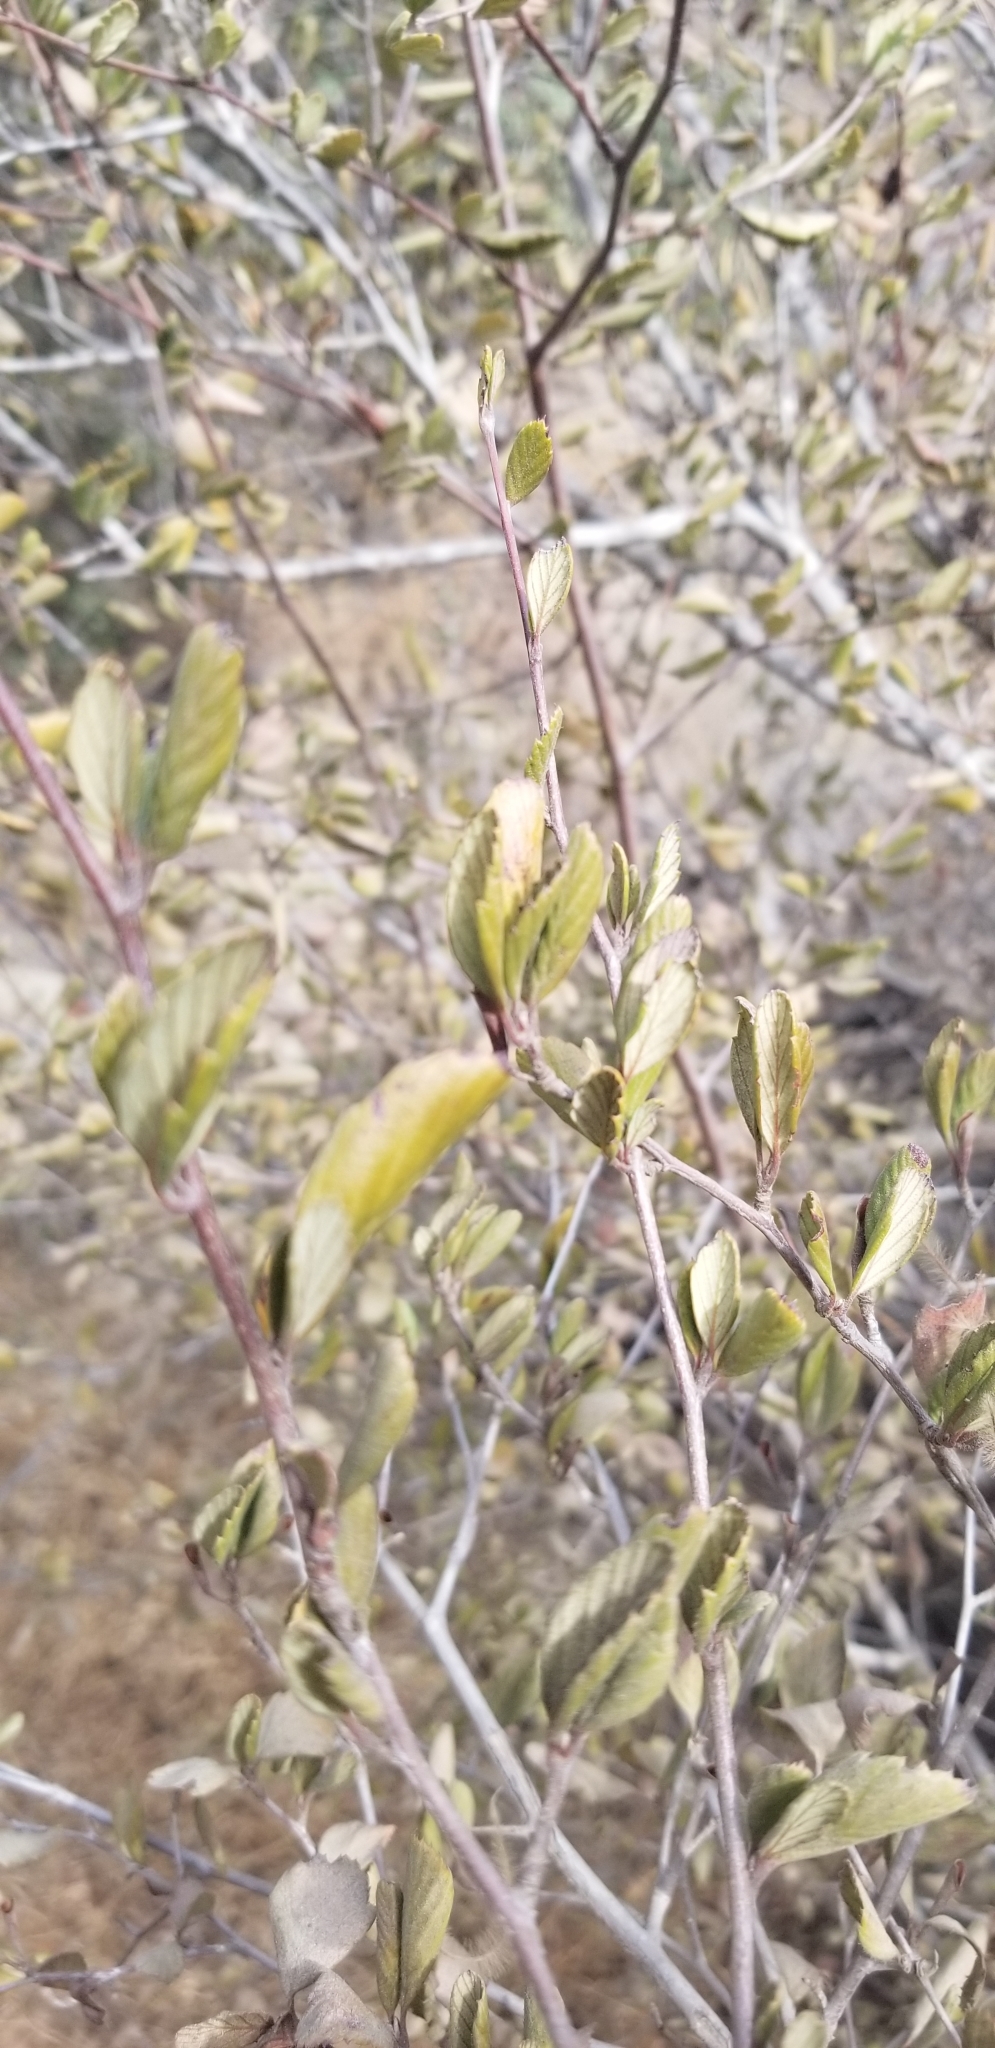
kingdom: Plantae
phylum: Tracheophyta
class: Magnoliopsida
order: Rosales
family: Rosaceae
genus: Cercocarpus
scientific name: Cercocarpus betuloides
